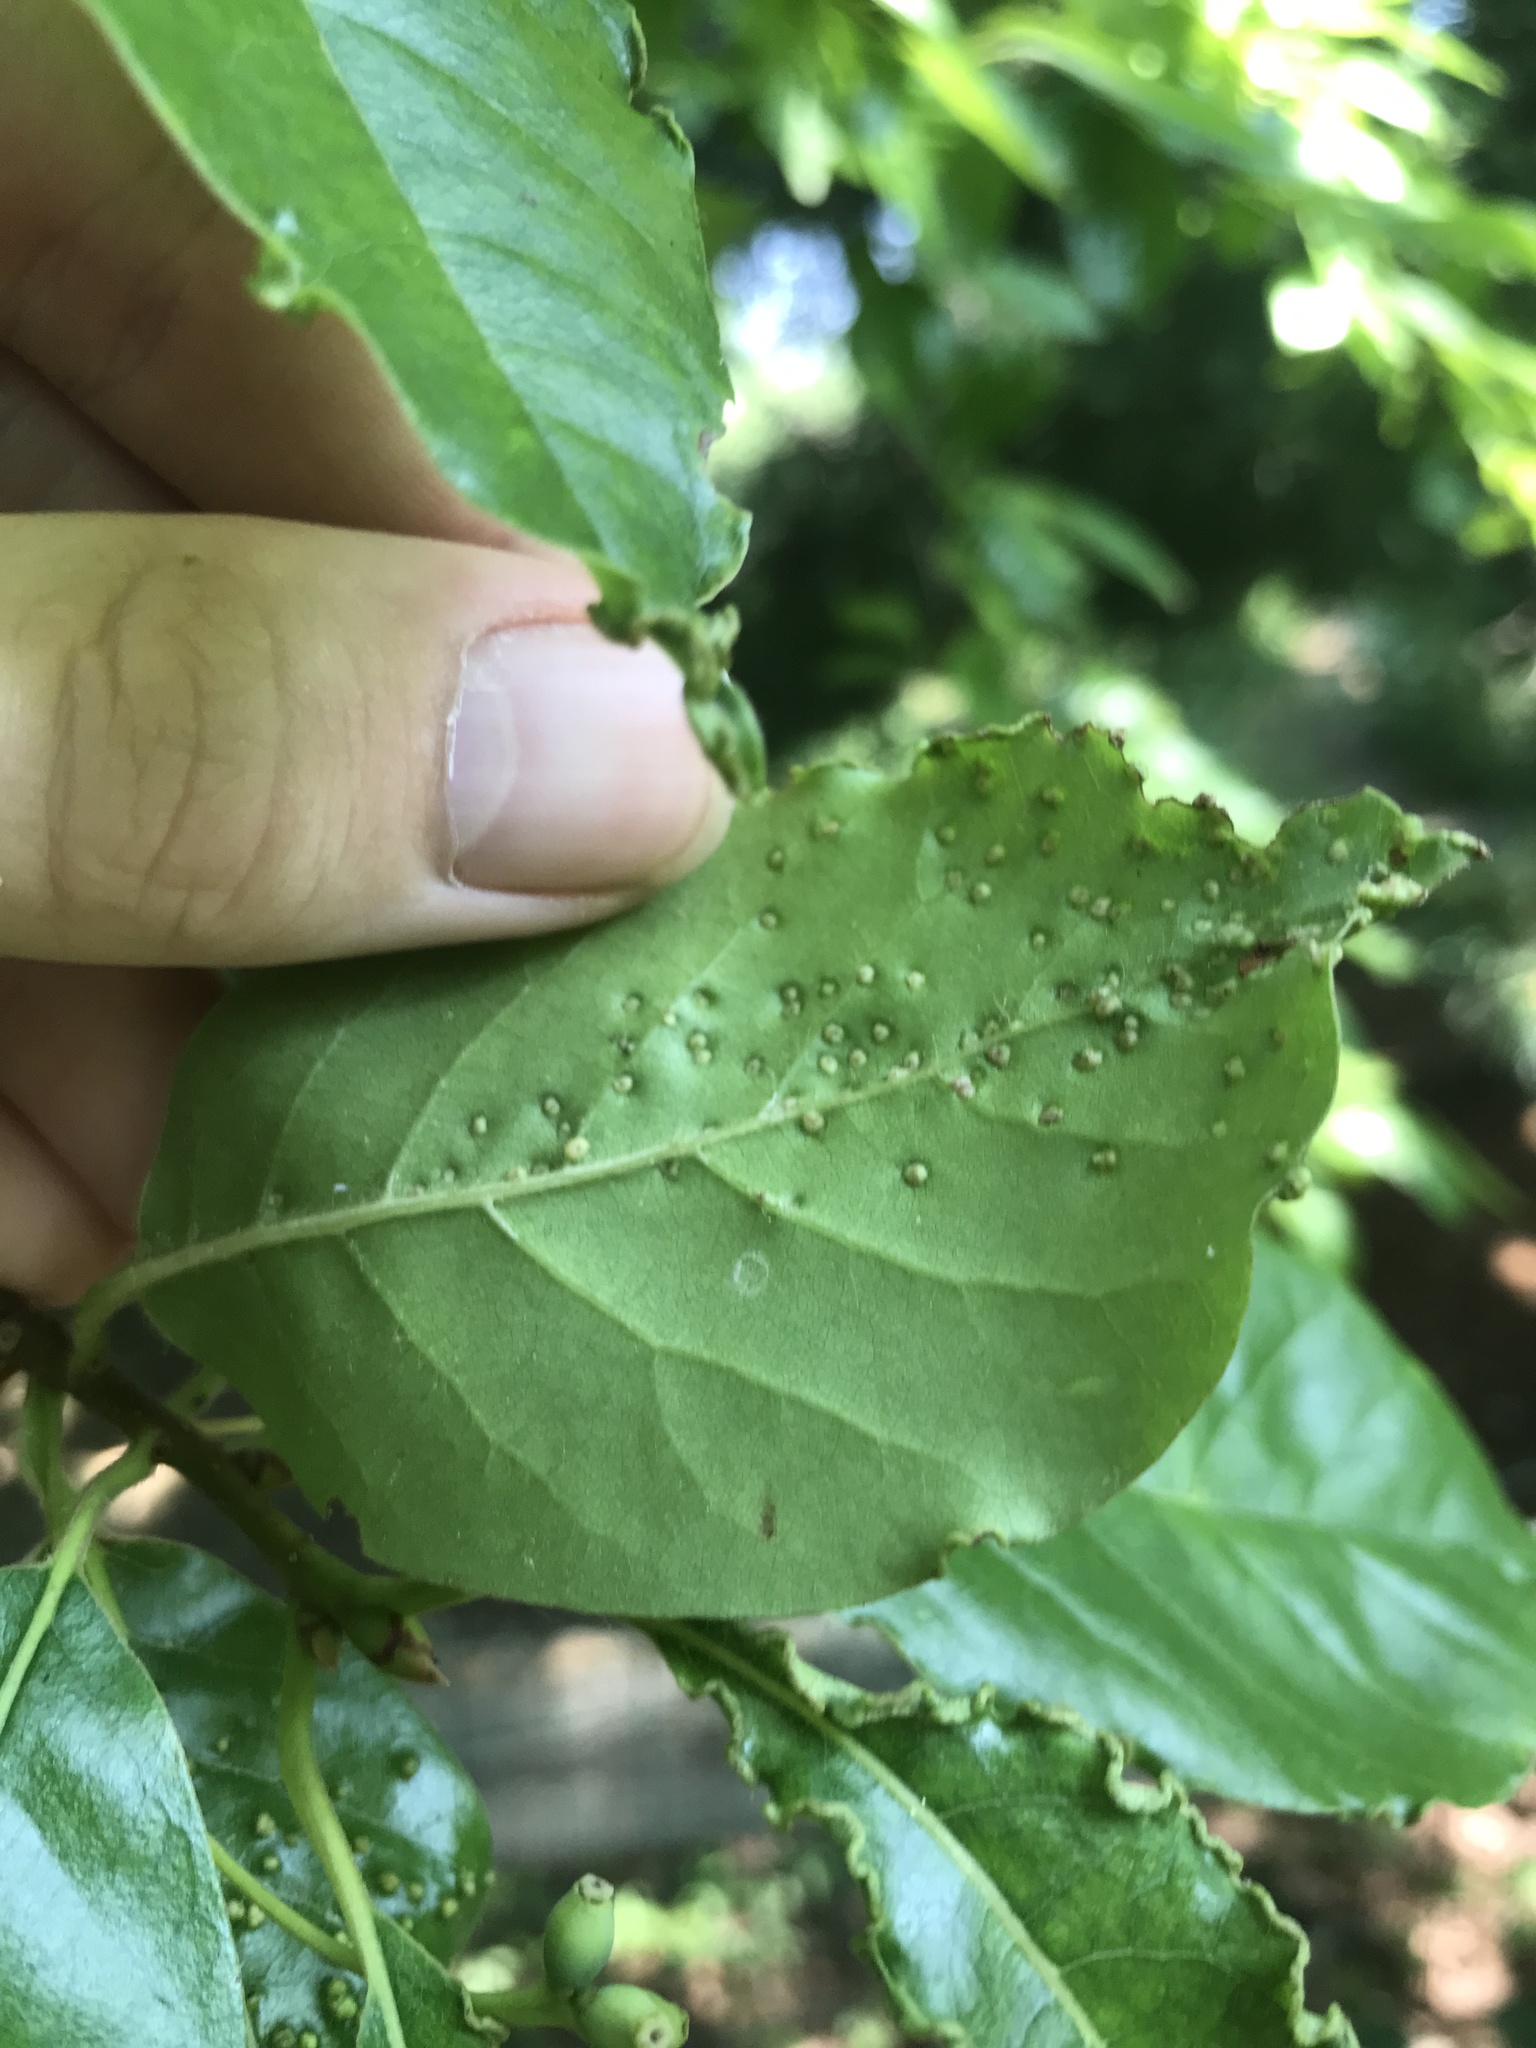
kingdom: Animalia
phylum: Arthropoda
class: Arachnida
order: Trombidiformes
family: Eriophyidae
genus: Aceria
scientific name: Aceria
